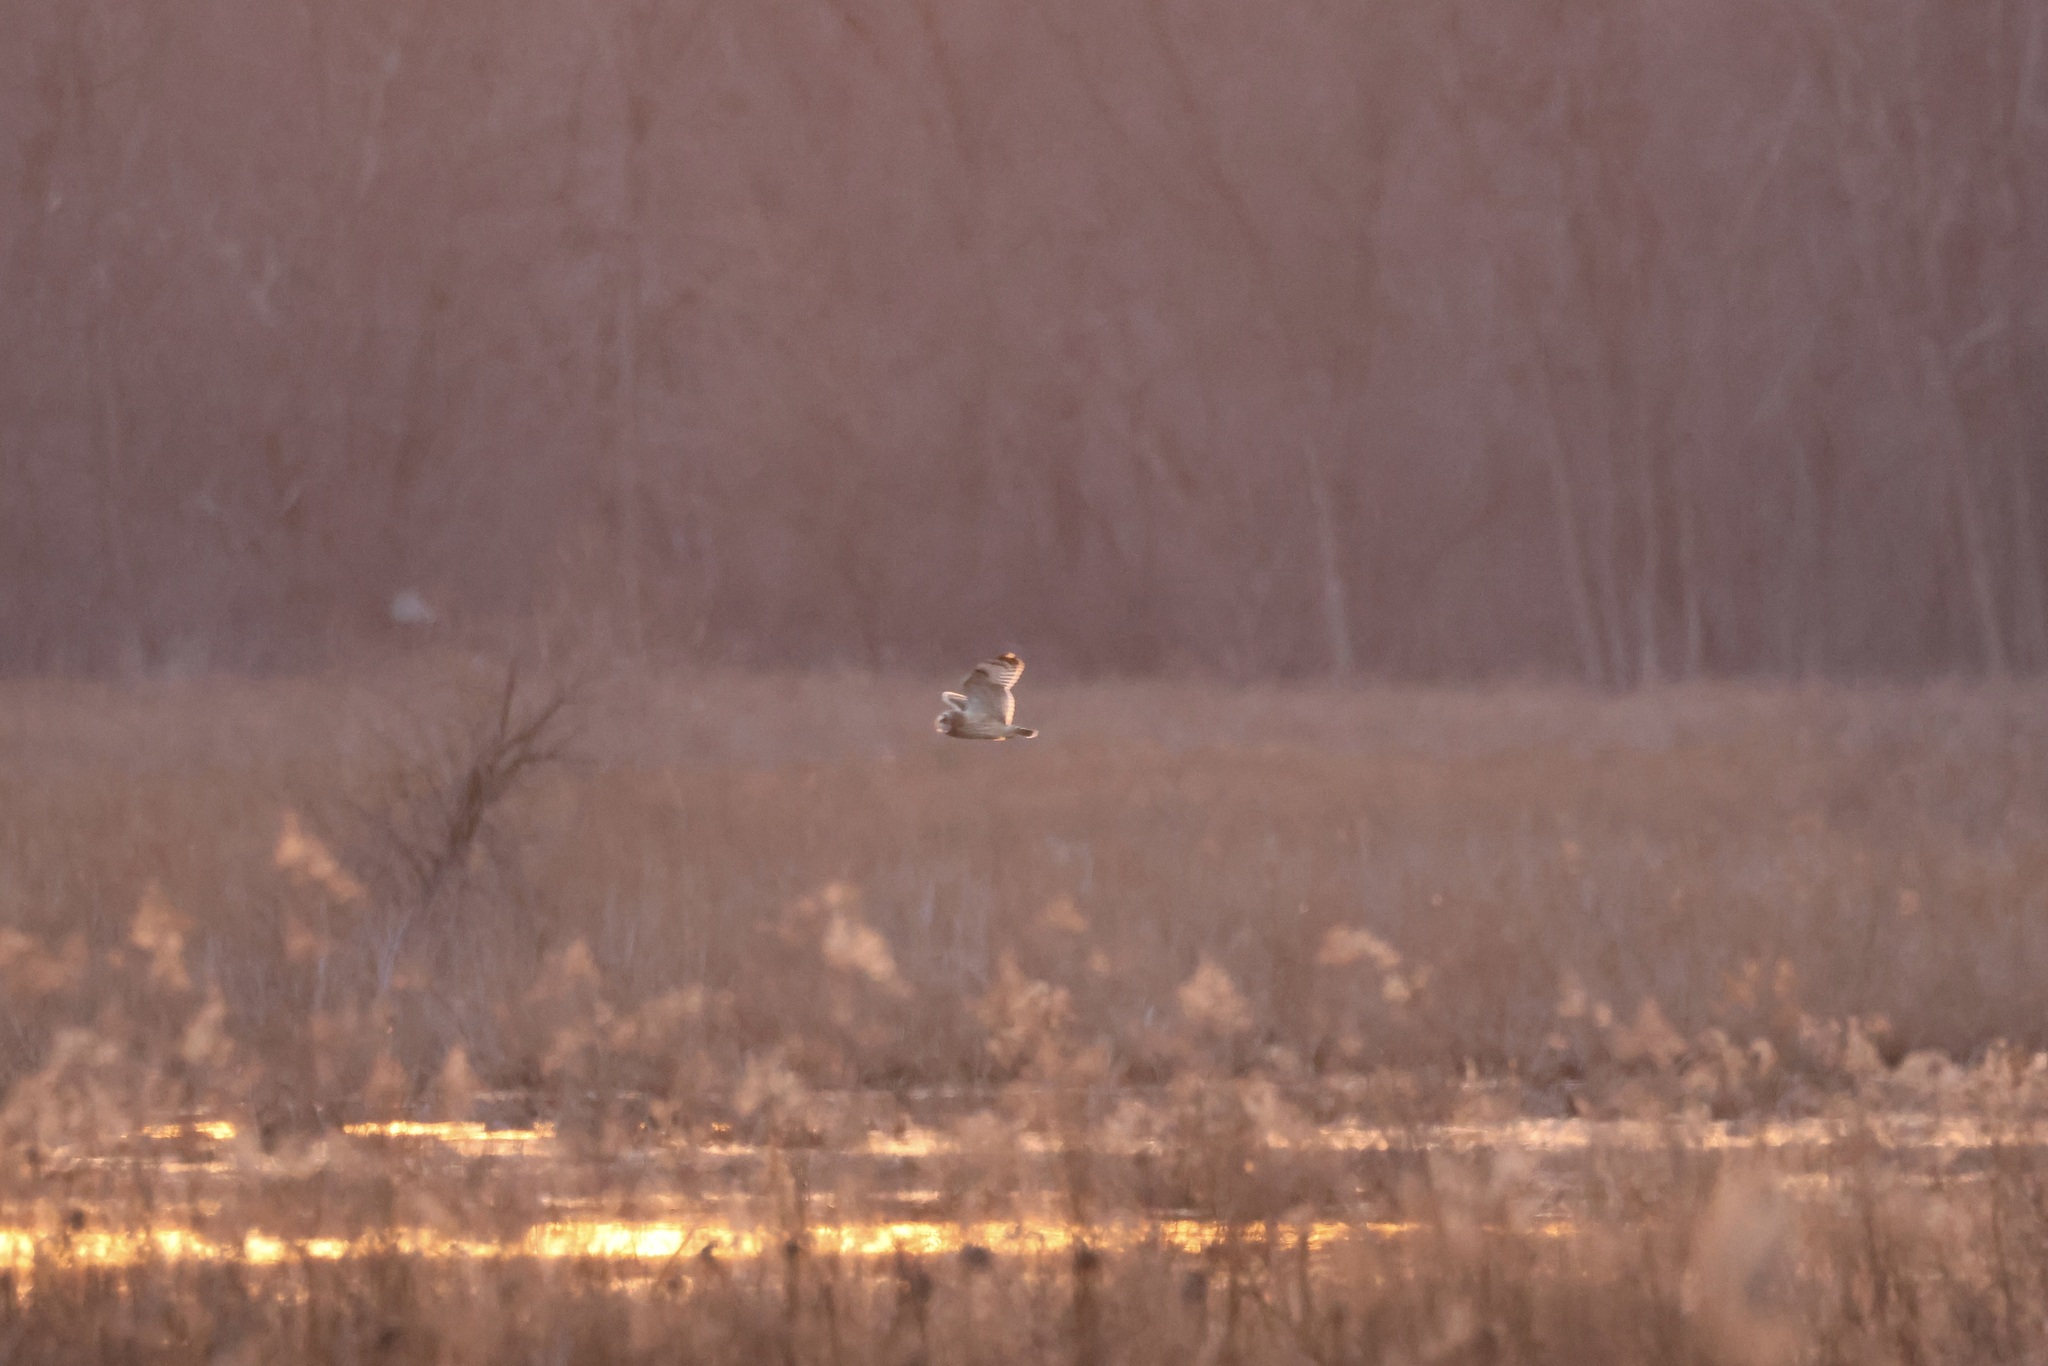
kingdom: Animalia
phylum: Chordata
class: Aves
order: Strigiformes
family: Strigidae
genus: Asio
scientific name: Asio flammeus
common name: Short-eared owl
